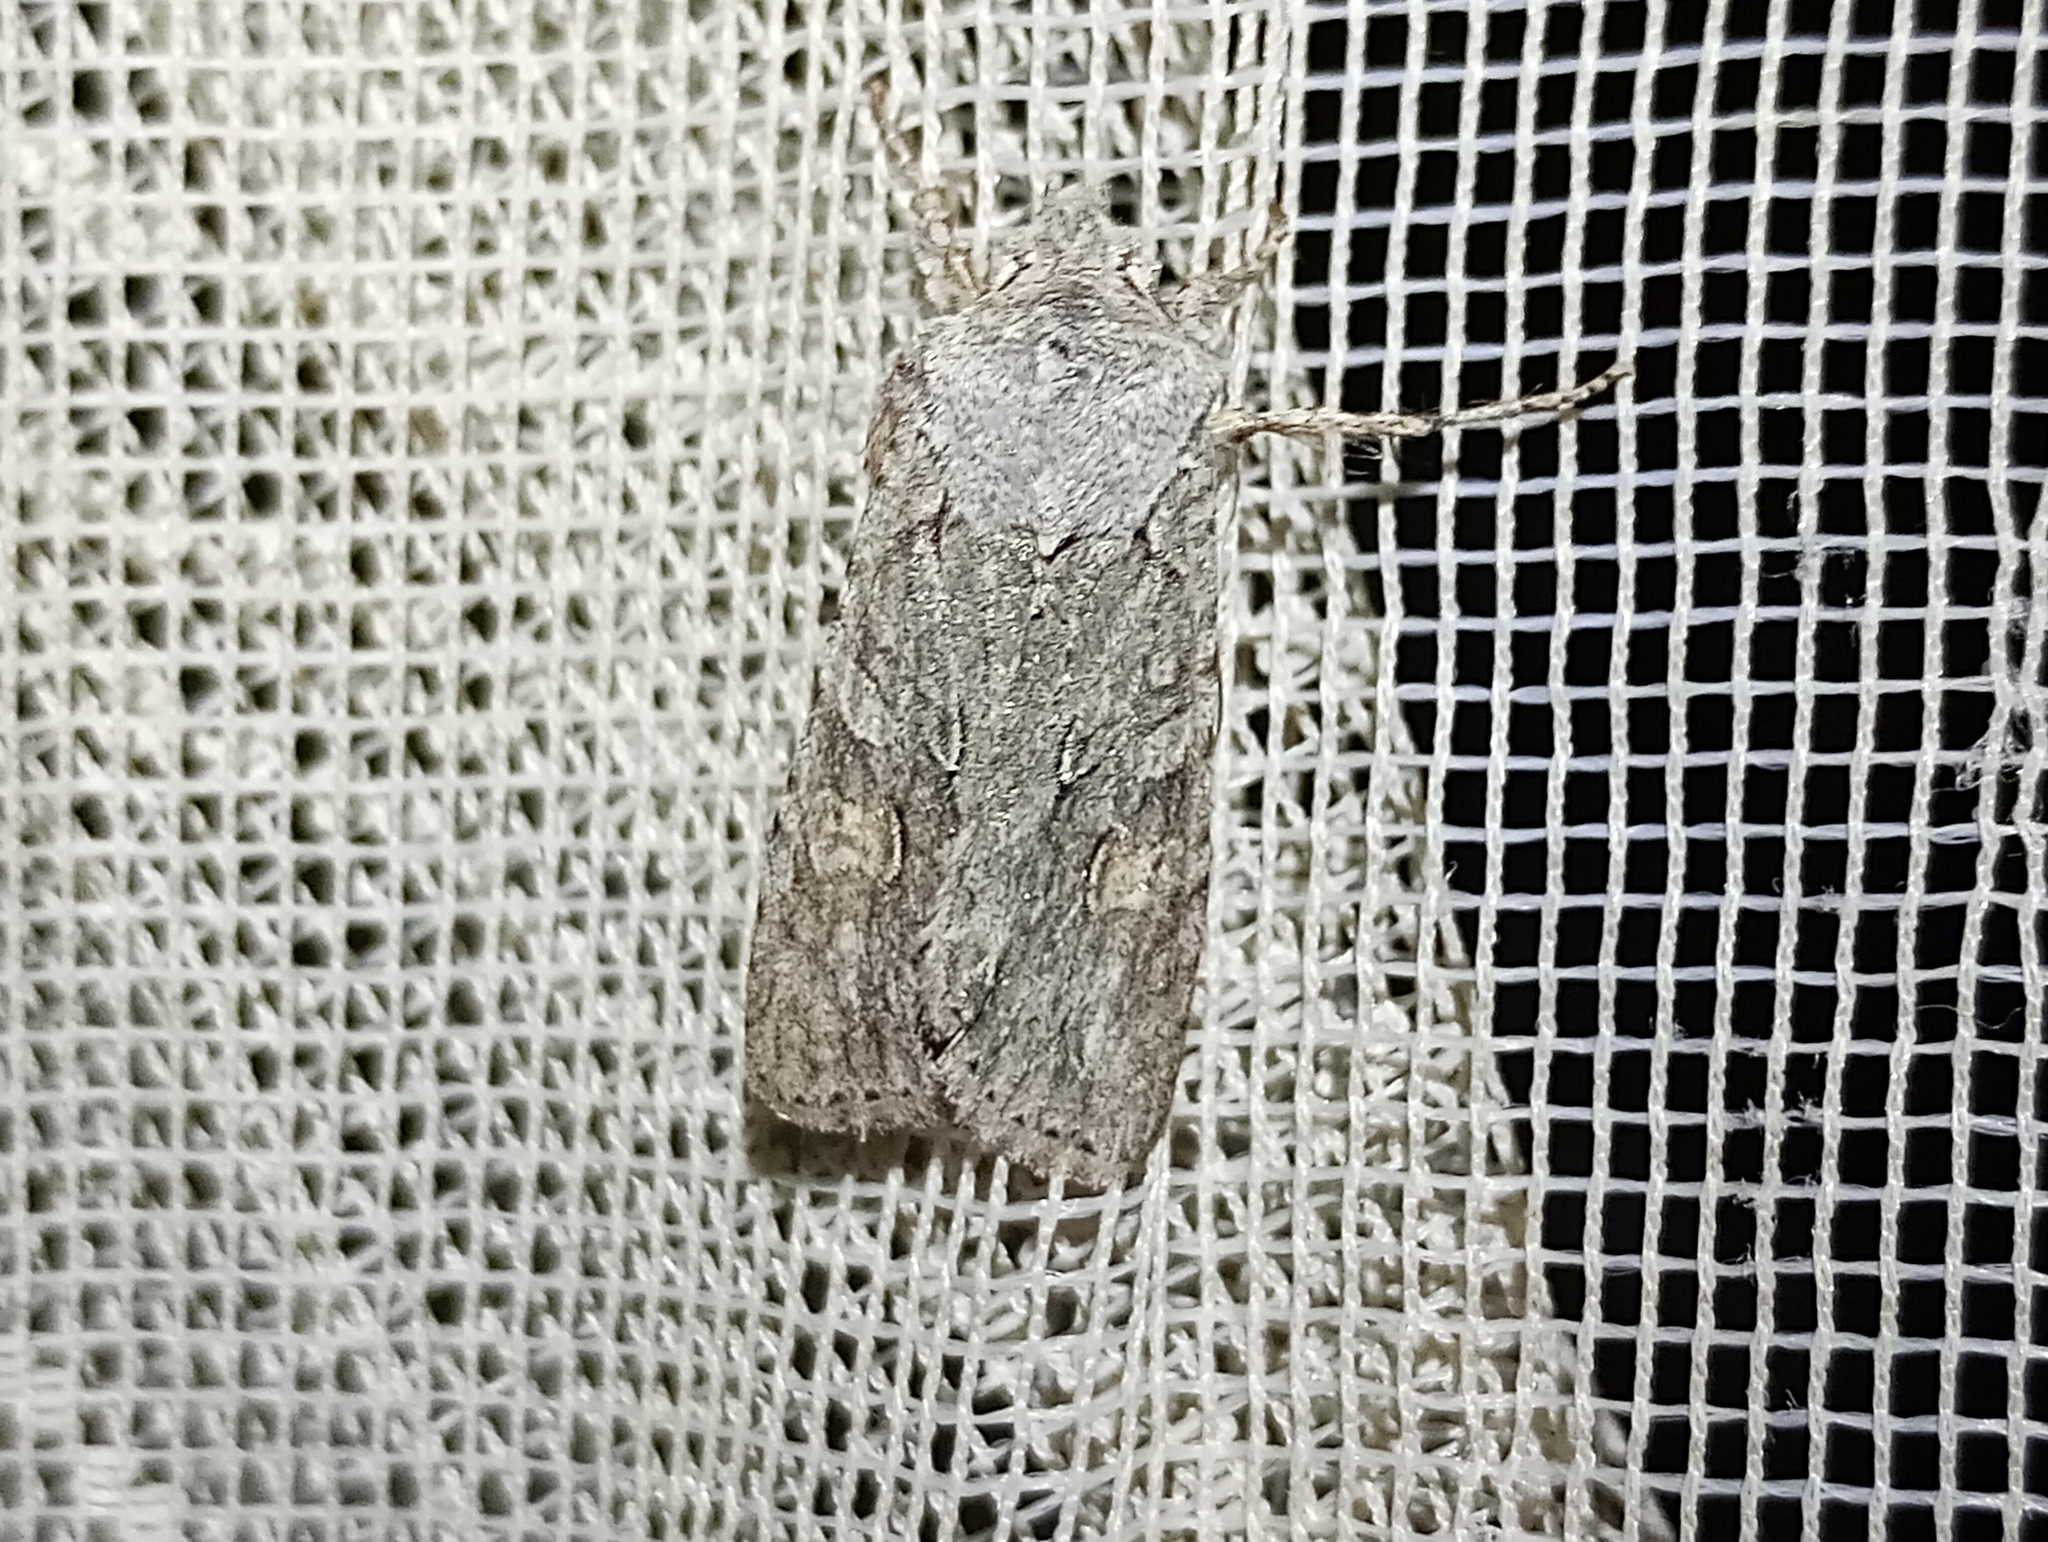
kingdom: Animalia
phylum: Arthropoda
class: Insecta
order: Lepidoptera
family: Noctuidae
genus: Lithophane
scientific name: Lithophane ornitopus
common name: Grey shoulder-knot
